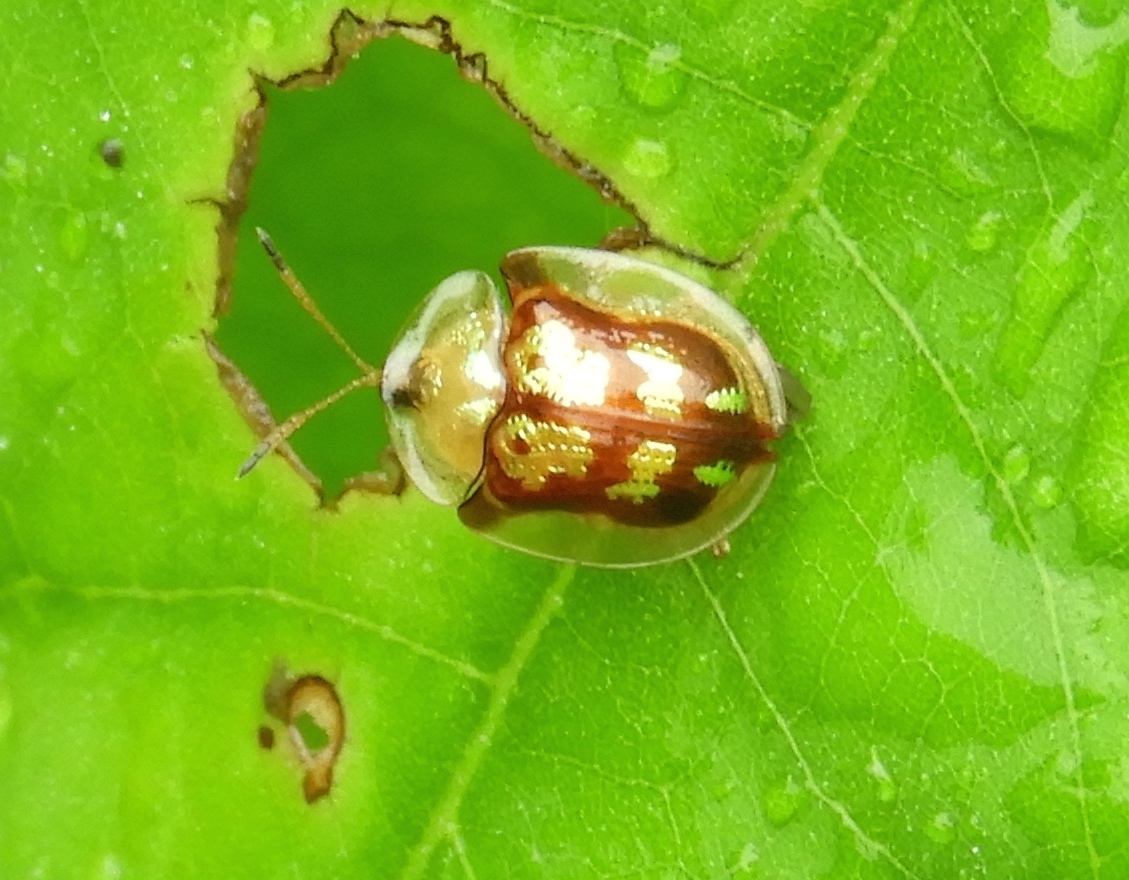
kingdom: Animalia
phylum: Arthropoda
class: Insecta
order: Coleoptera
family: Chrysomelidae
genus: Deloyala
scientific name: Deloyala lecontei
